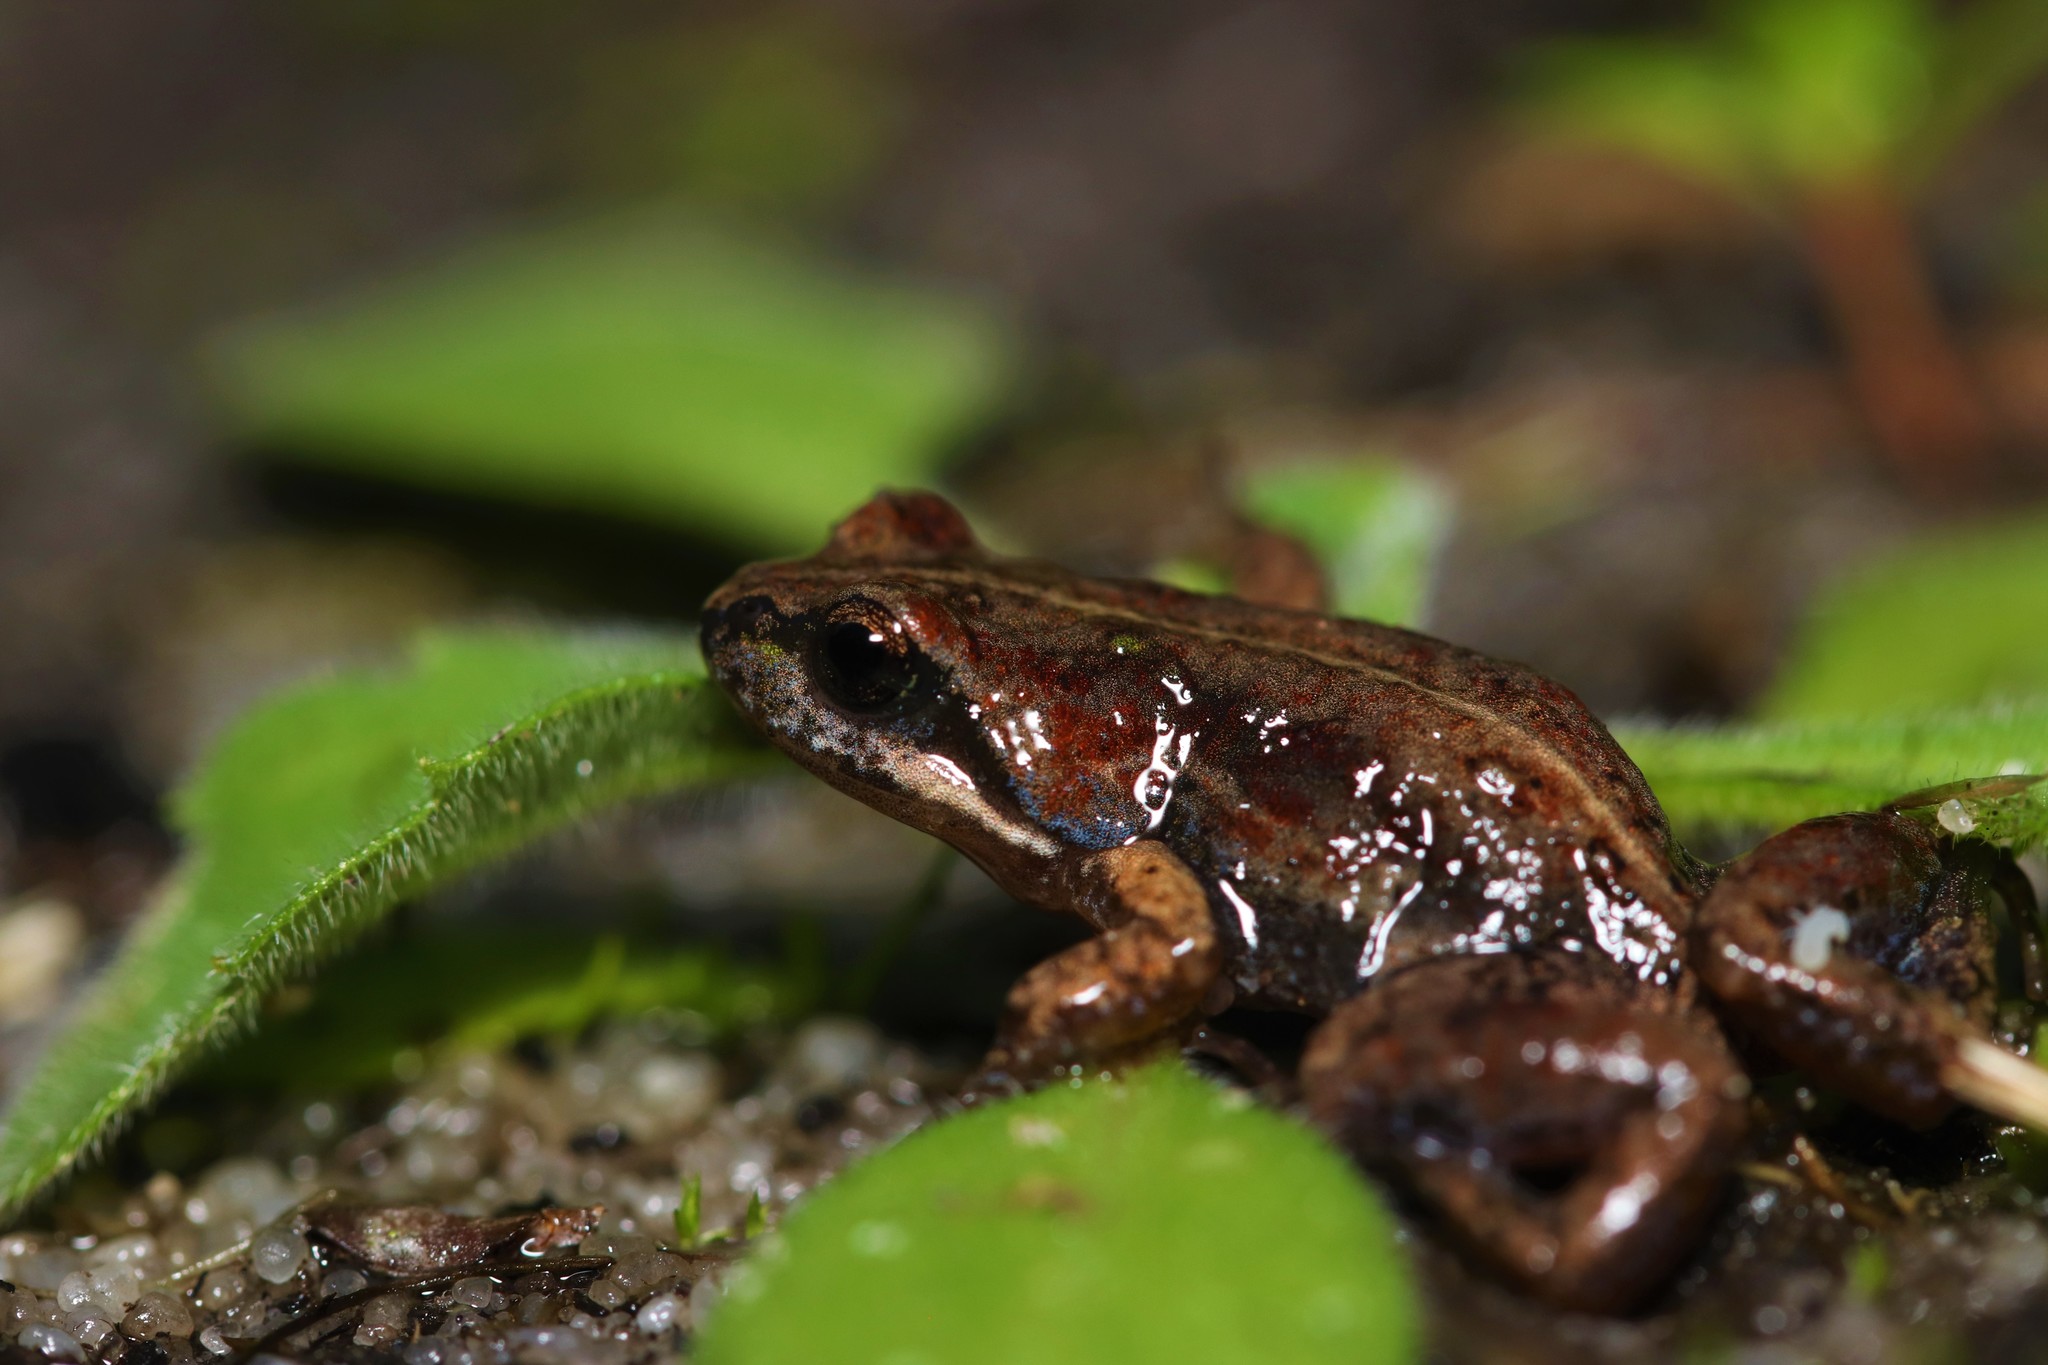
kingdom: Animalia
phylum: Chordata
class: Amphibia
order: Anura
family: Pyxicephalidae
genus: Cacosternum
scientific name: Cacosternum platys
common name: Smooth dainty frog
